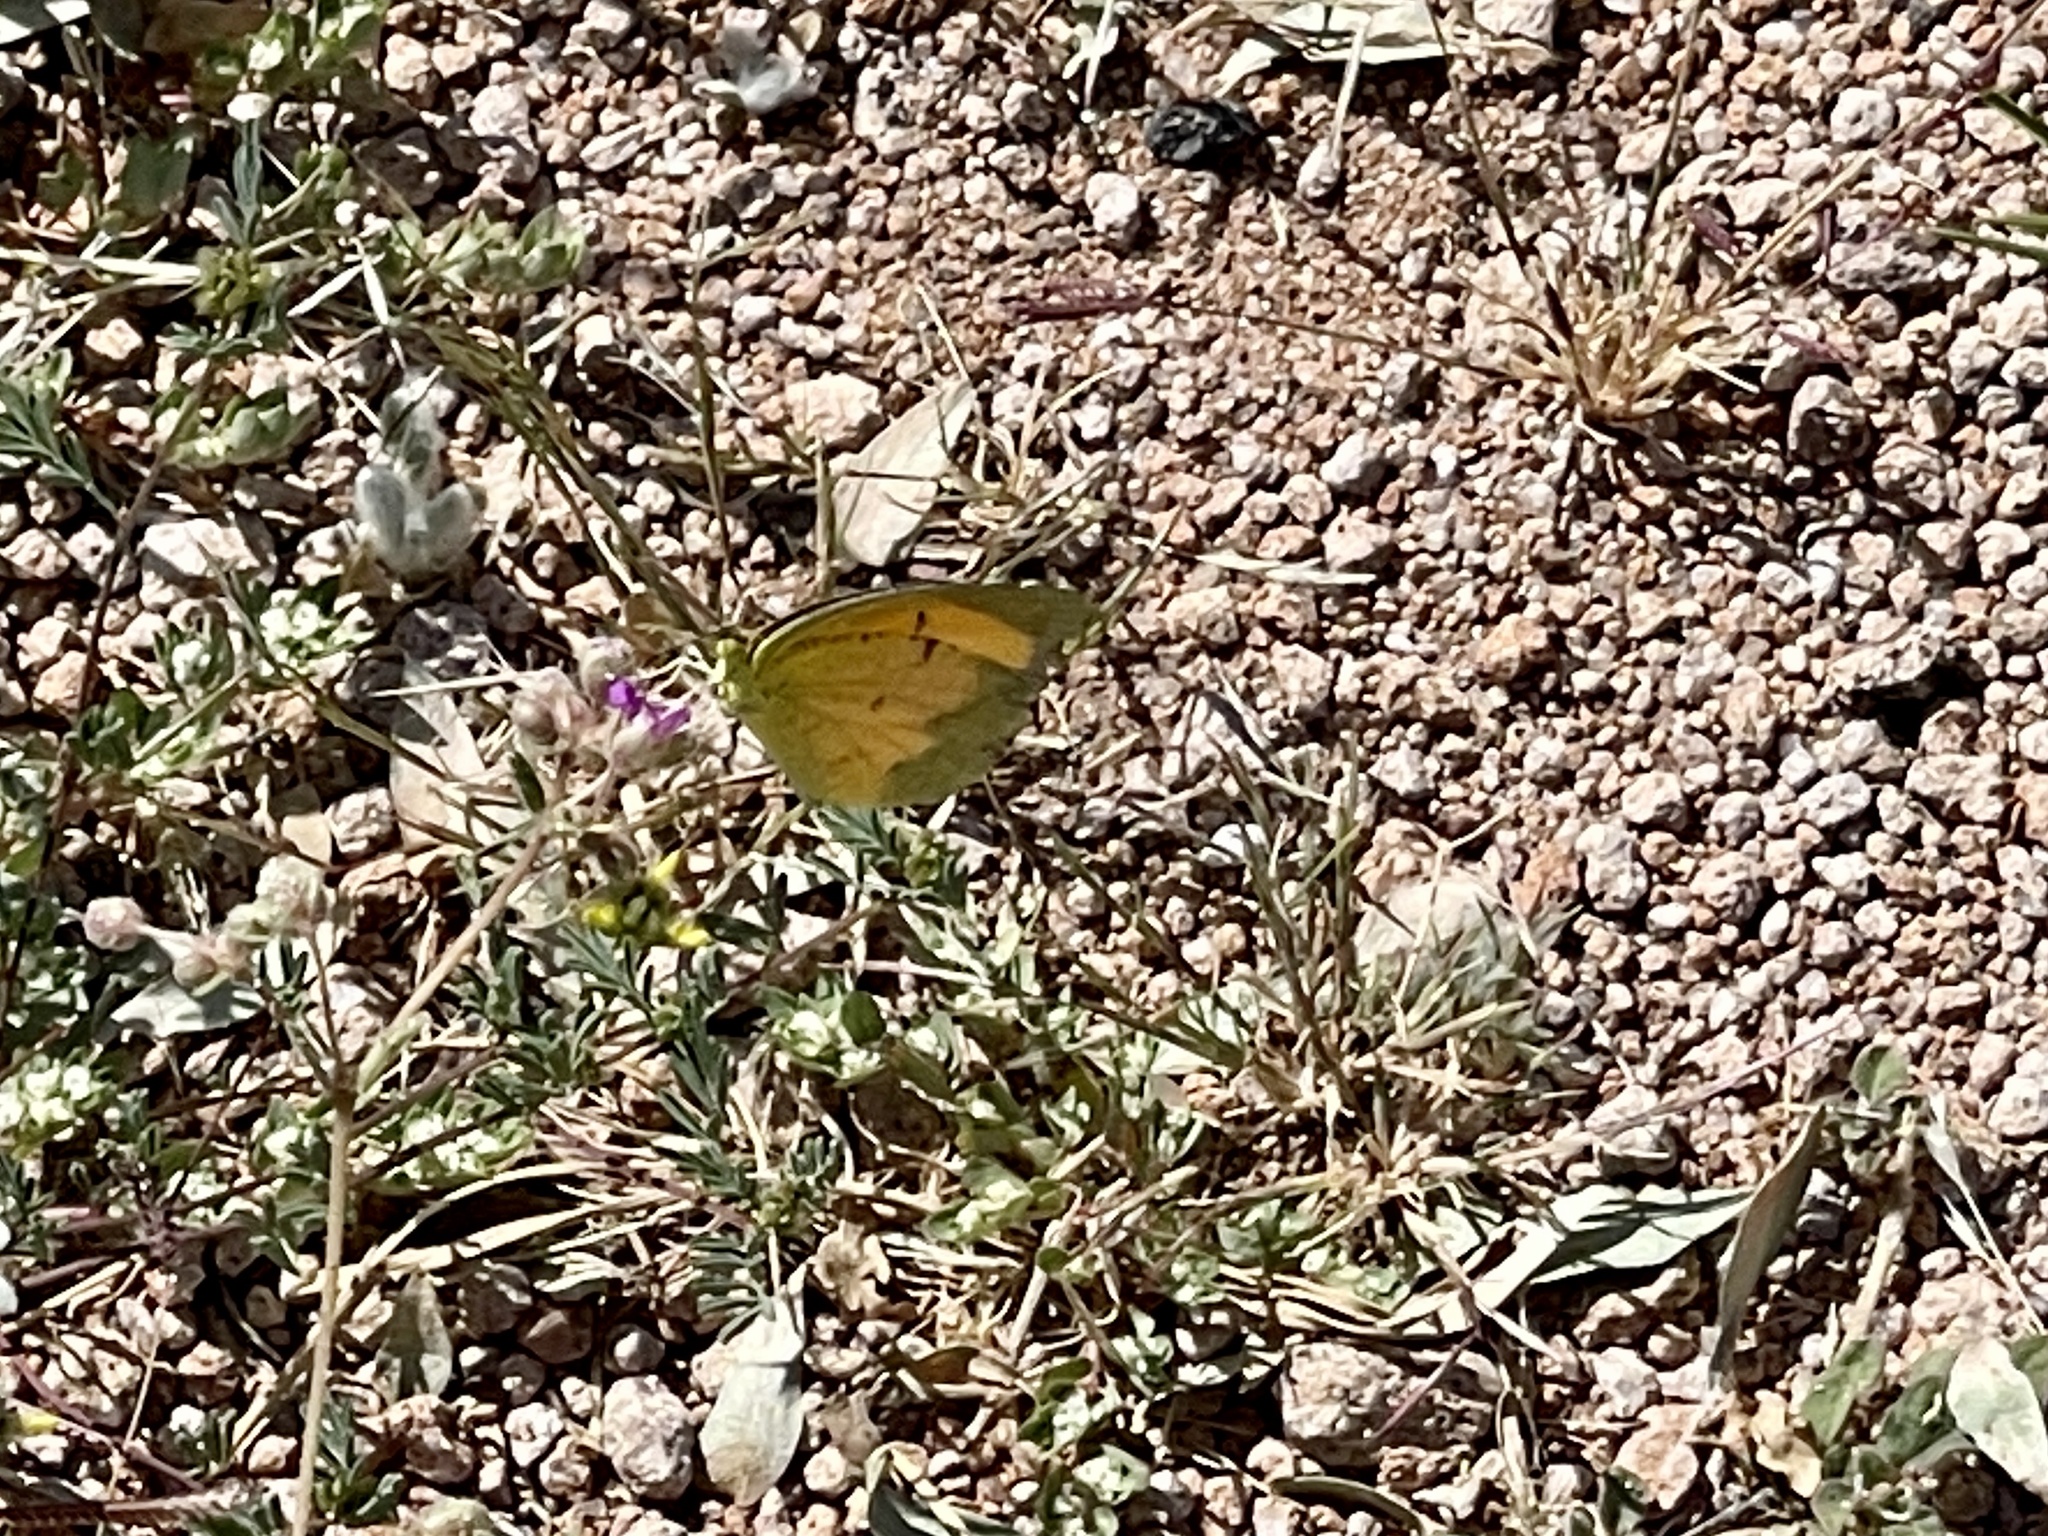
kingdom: Animalia
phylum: Arthropoda
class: Insecta
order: Lepidoptera
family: Pieridae
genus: Abaeis
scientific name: Abaeis nicippe
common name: Sleepy orange
